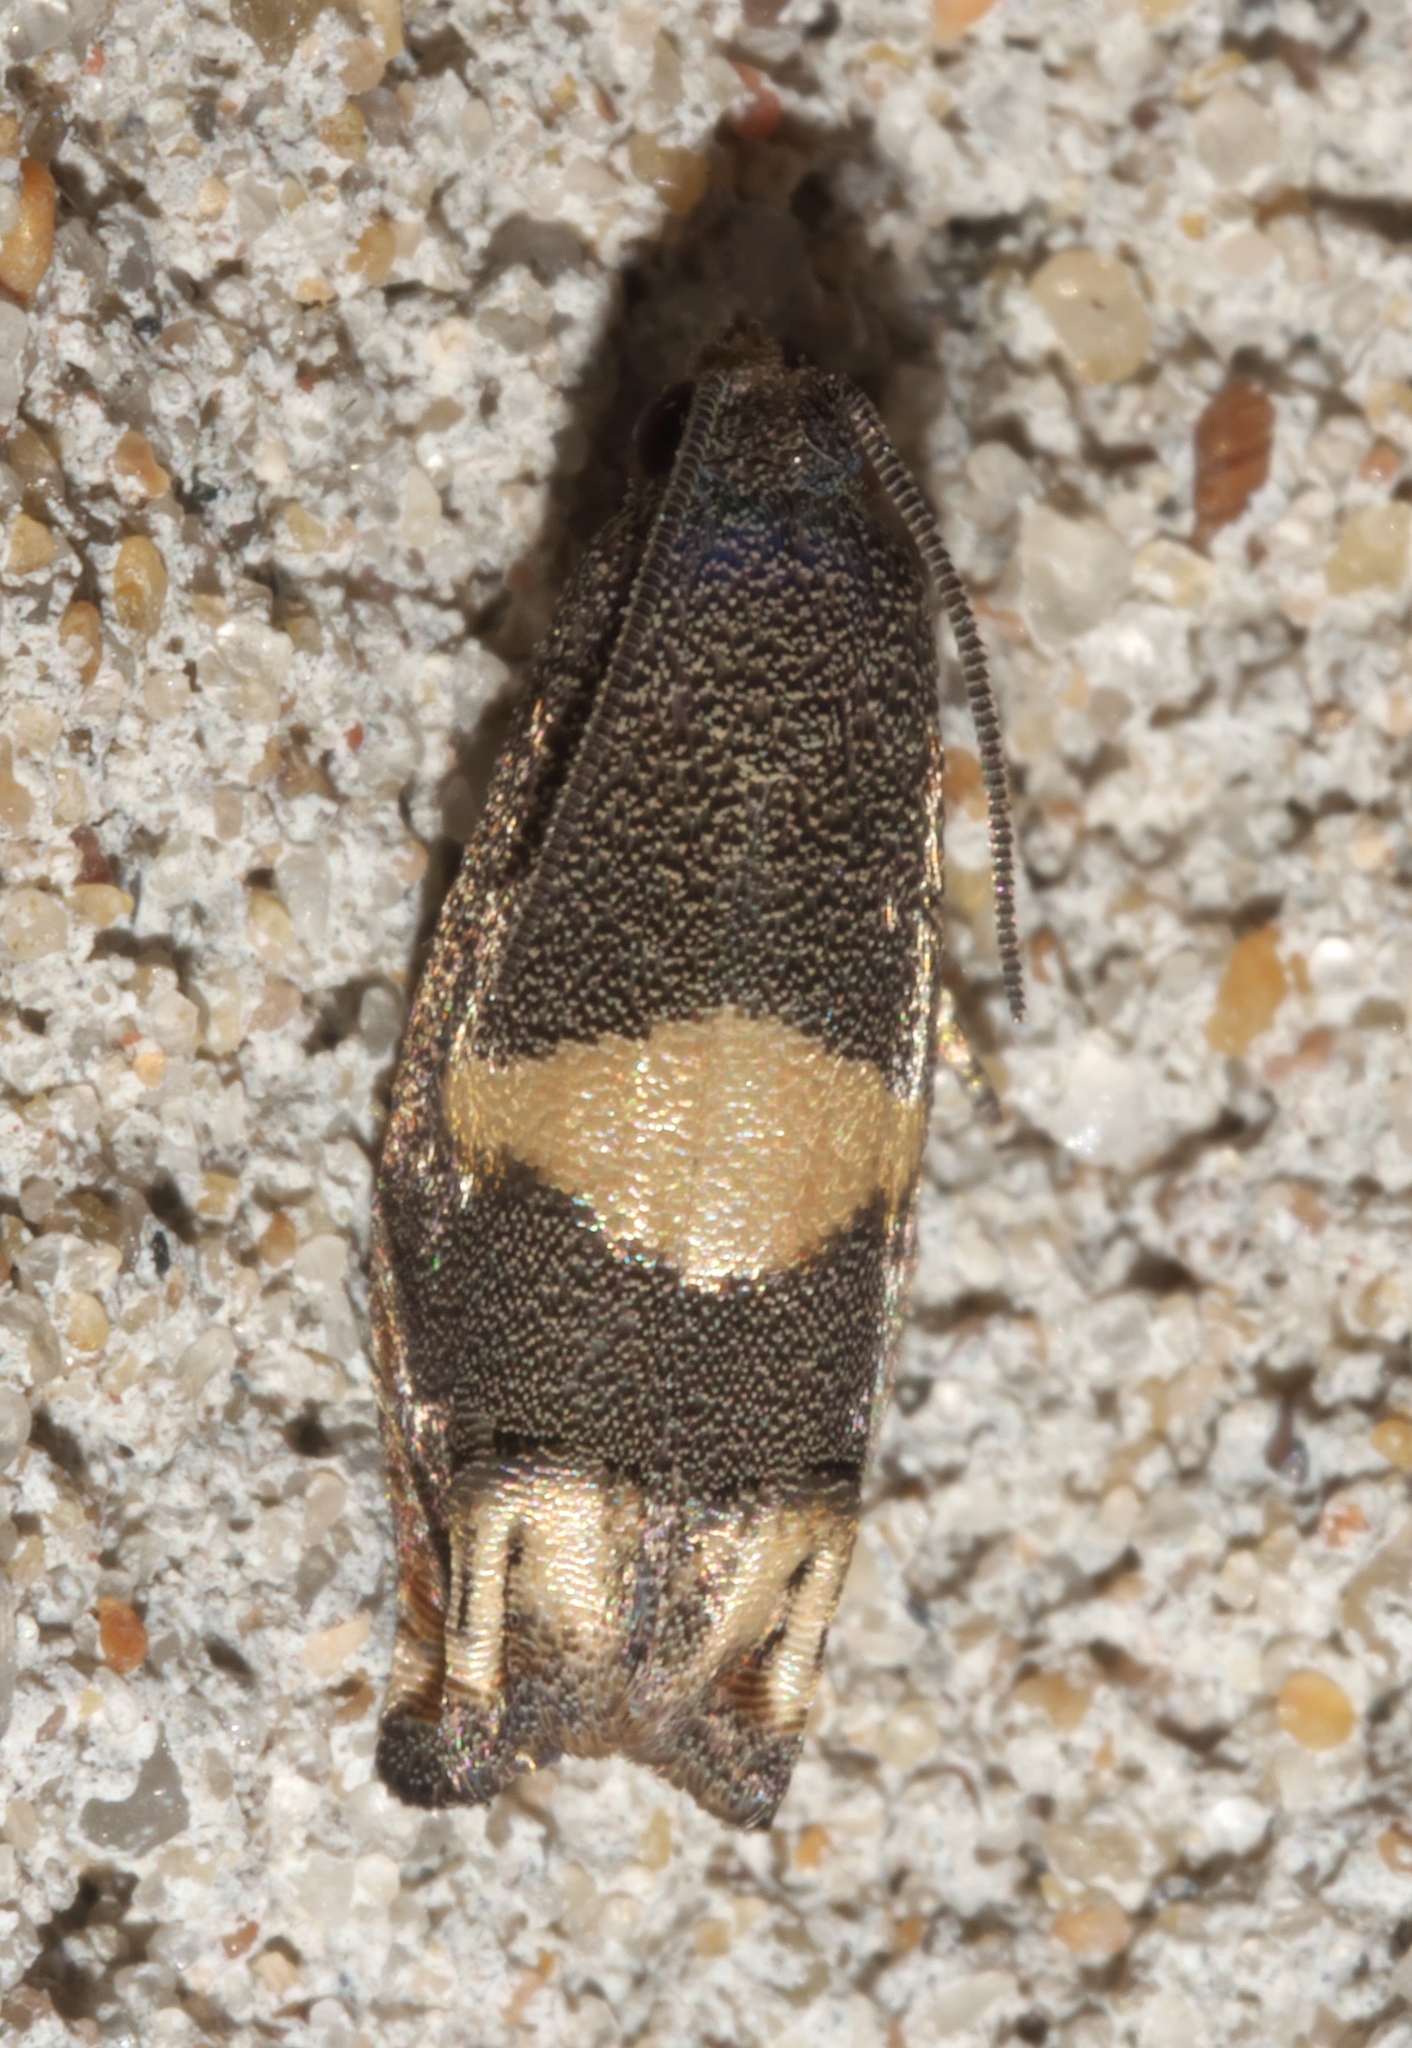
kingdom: Animalia
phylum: Arthropoda
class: Insecta
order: Lepidoptera
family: Tortricidae
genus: Epiblema
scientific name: Epiblema
